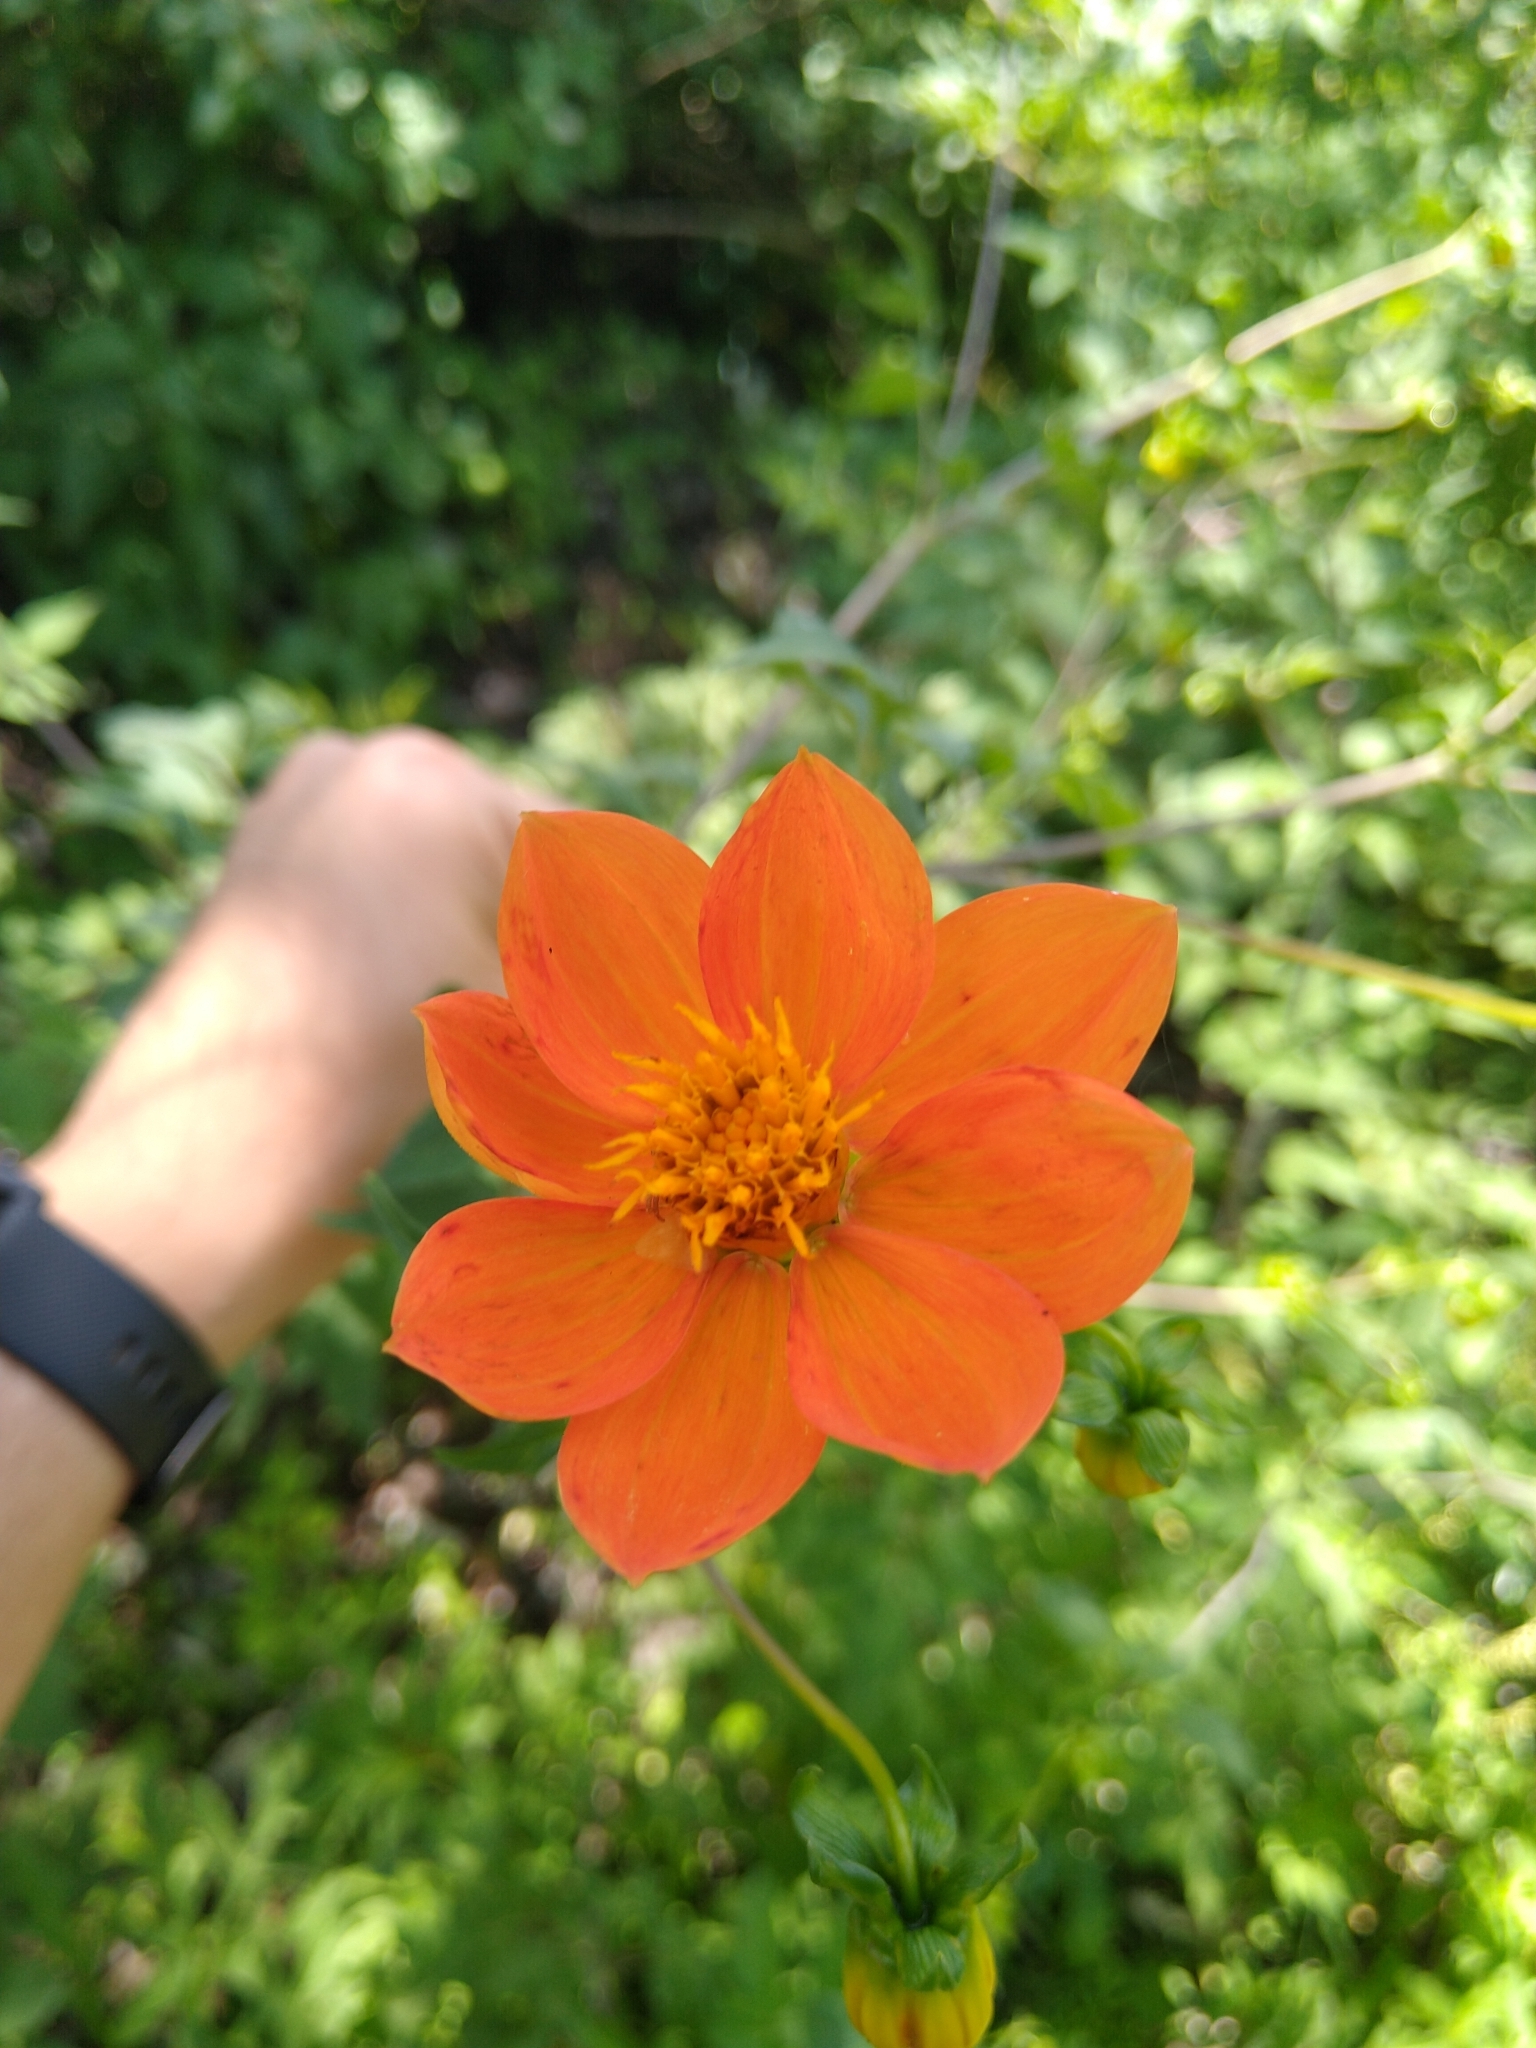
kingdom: Plantae
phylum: Tracheophyta
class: Magnoliopsida
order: Asterales
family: Asteraceae
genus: Dahlia
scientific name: Dahlia coccinea
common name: Red dahlia
